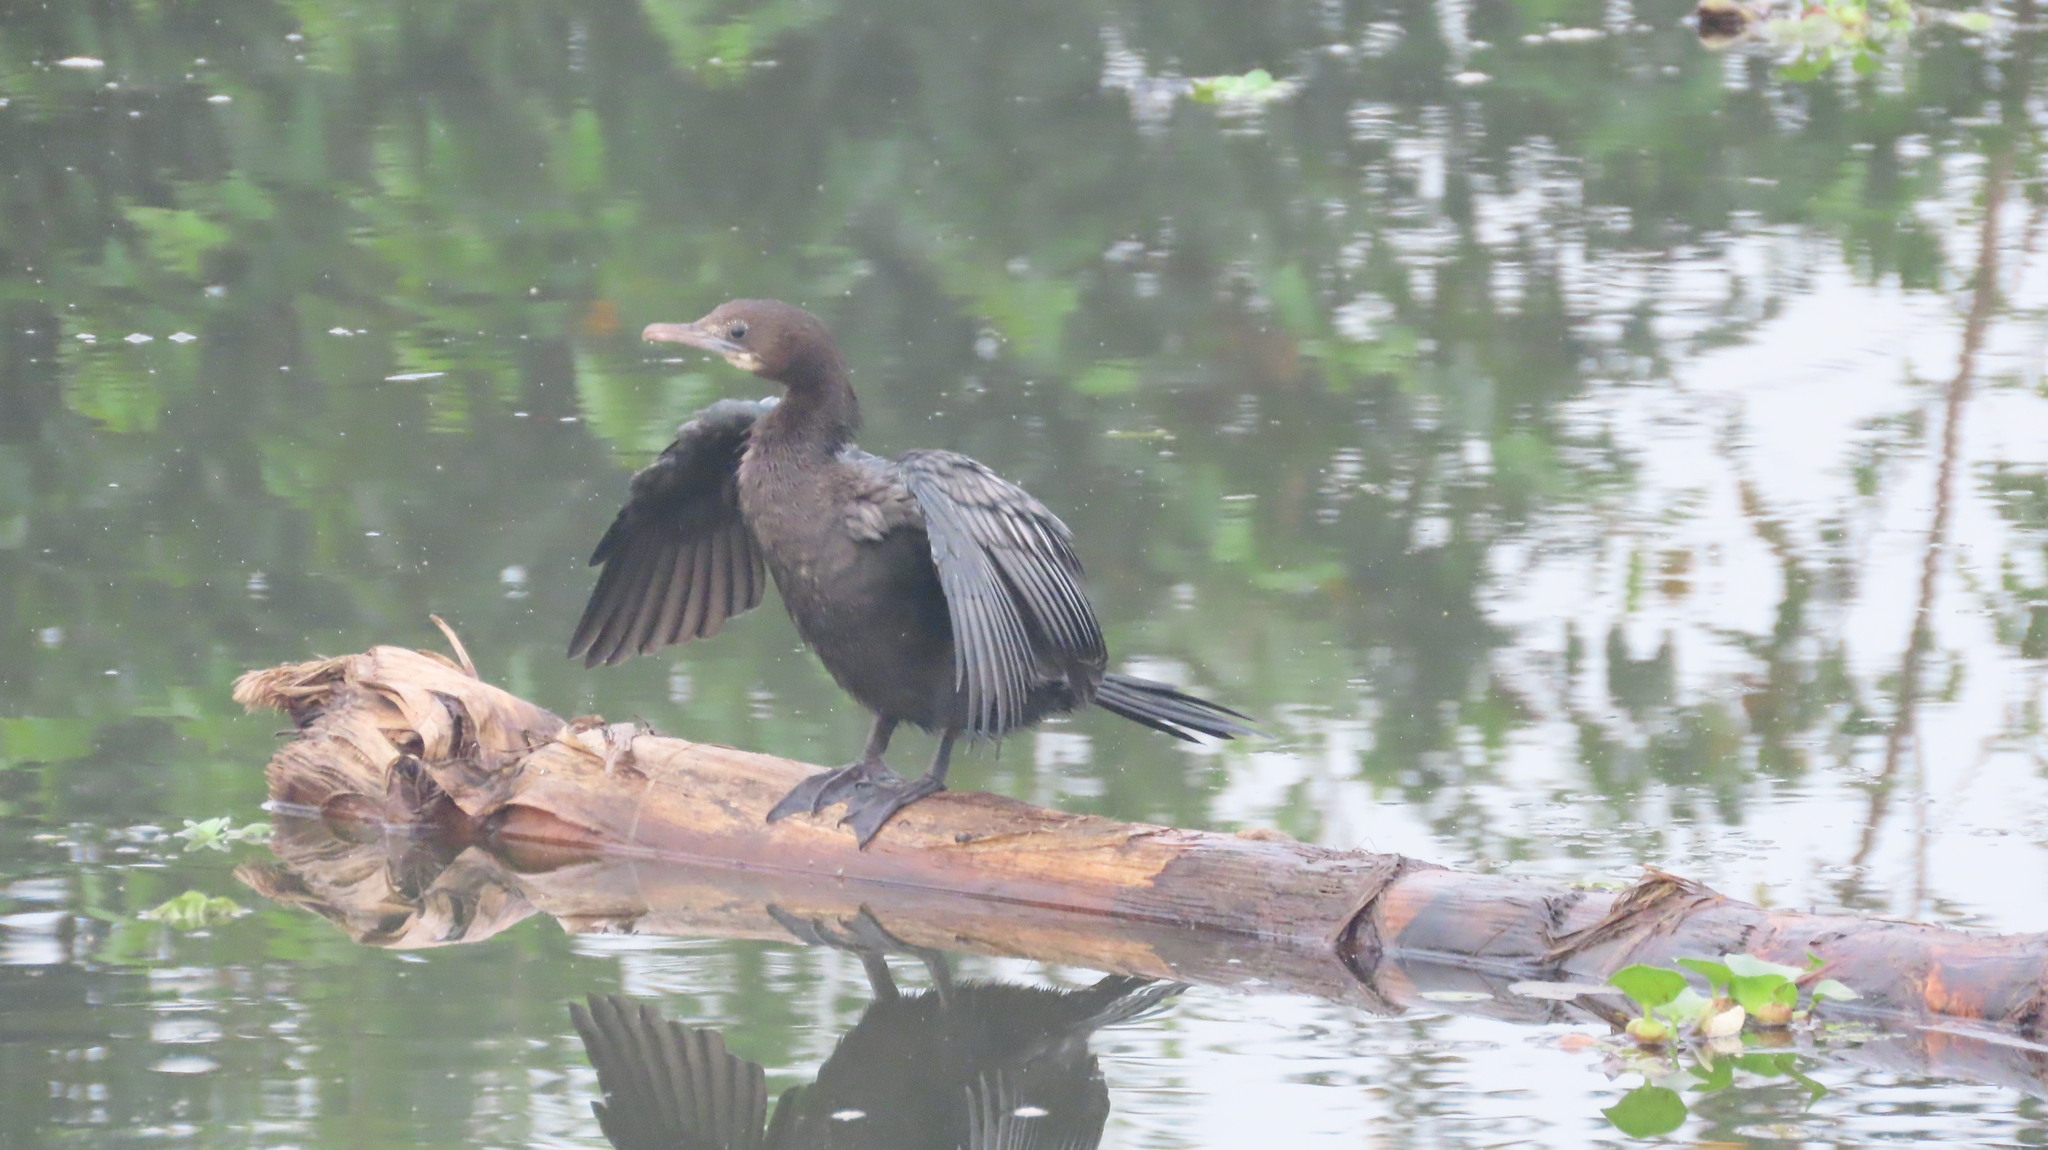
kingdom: Animalia
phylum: Chordata
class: Aves
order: Suliformes
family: Phalacrocoracidae
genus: Microcarbo
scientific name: Microcarbo niger
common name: Little cormorant
